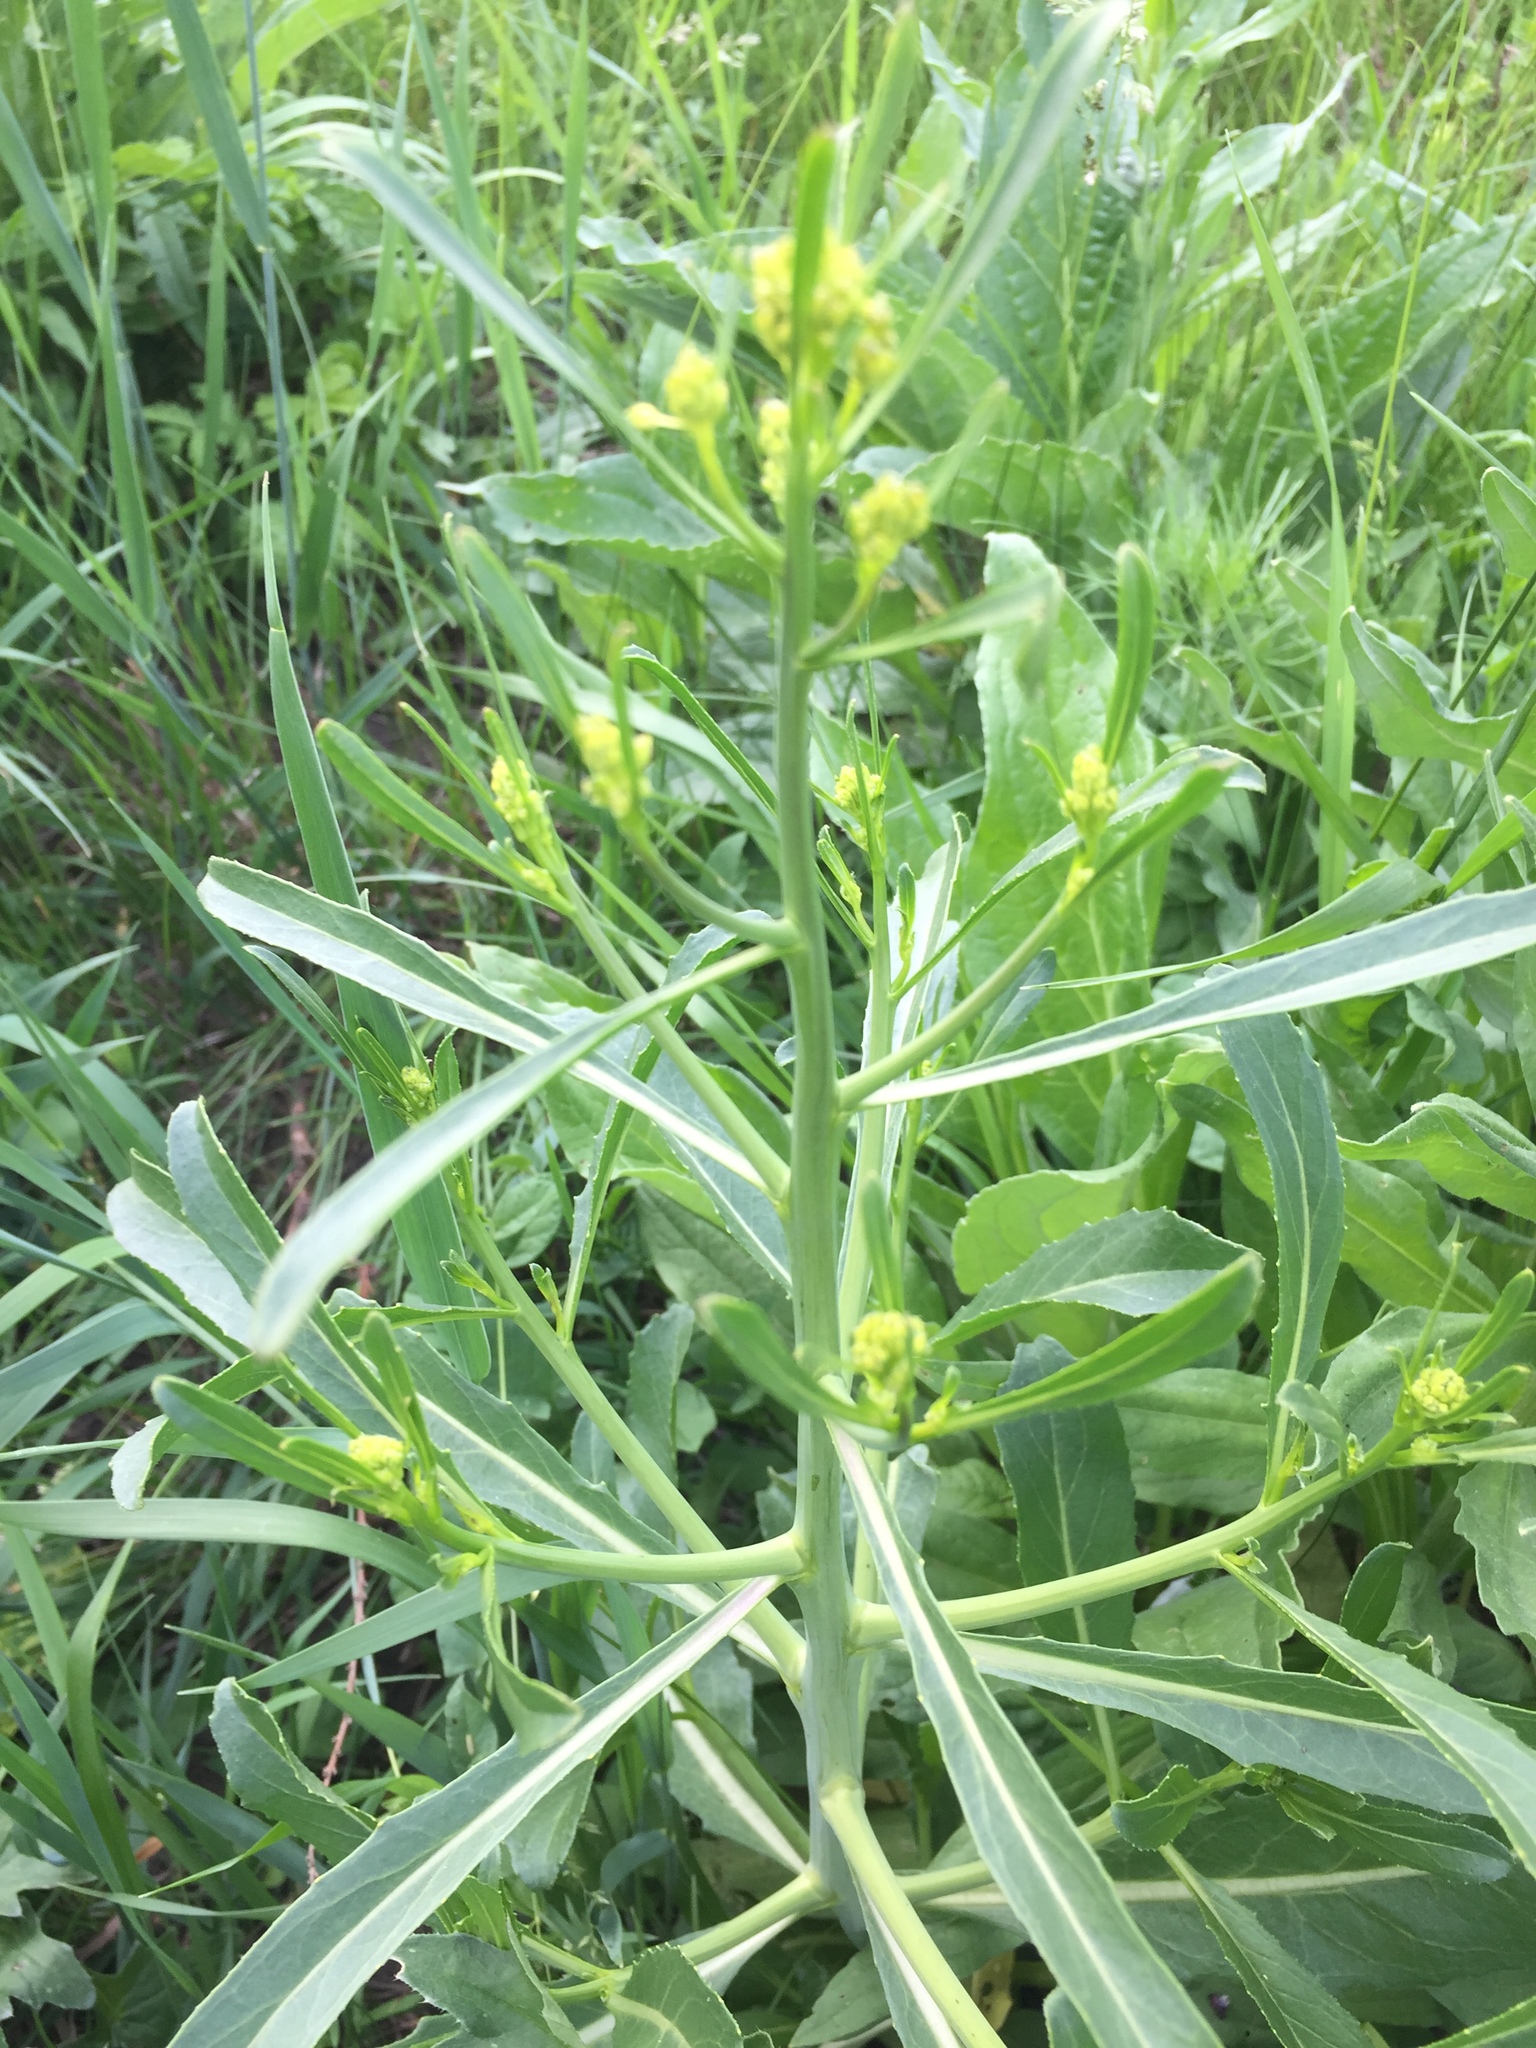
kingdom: Plantae
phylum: Tracheophyta
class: Magnoliopsida
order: Brassicales
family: Brassicaceae
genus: Brassica
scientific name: Brassica elongata
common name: Long-stalked rape
